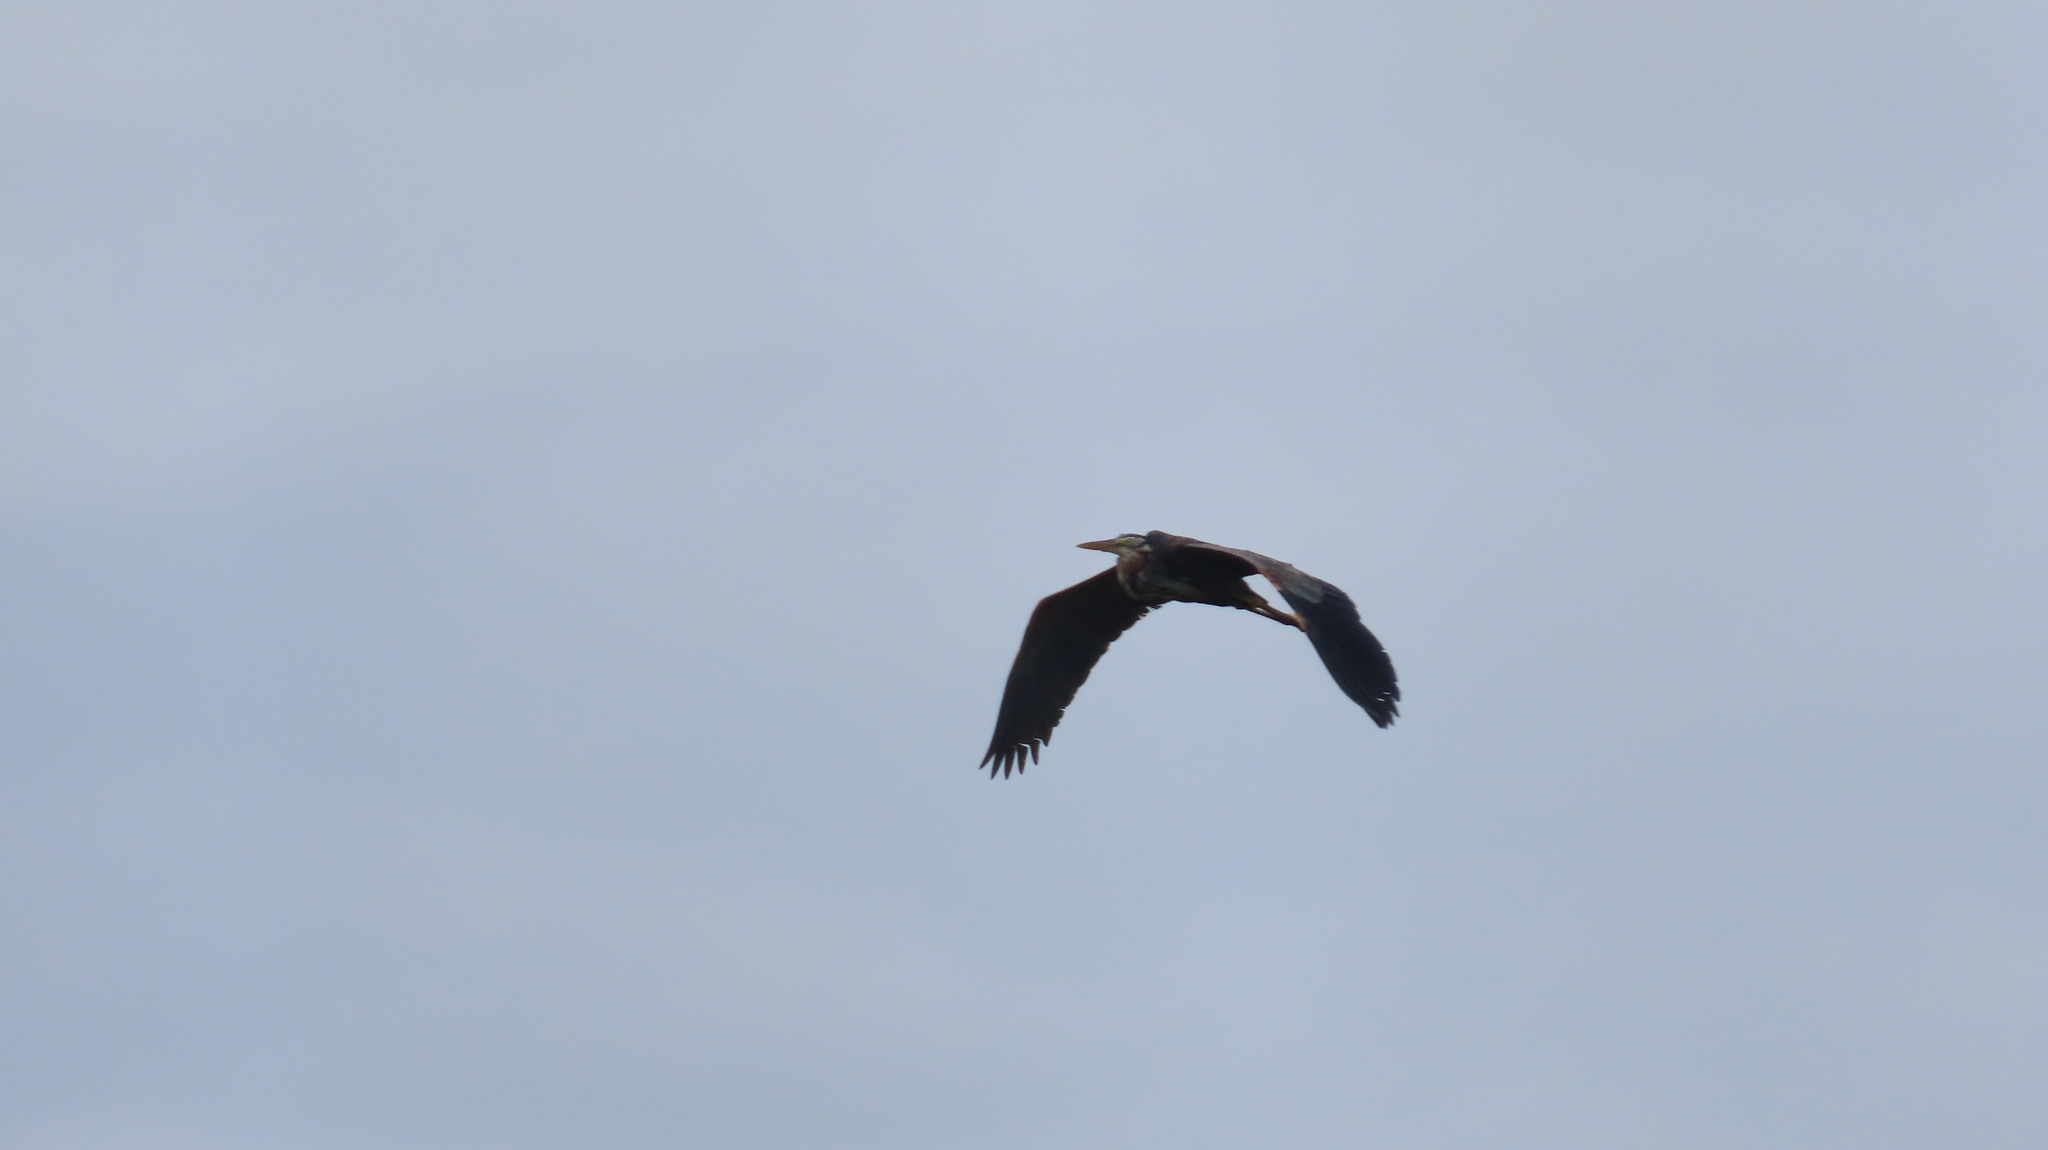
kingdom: Animalia
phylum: Chordata
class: Aves
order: Pelecaniformes
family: Ardeidae
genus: Ardea
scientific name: Ardea purpurea
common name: Purple heron
